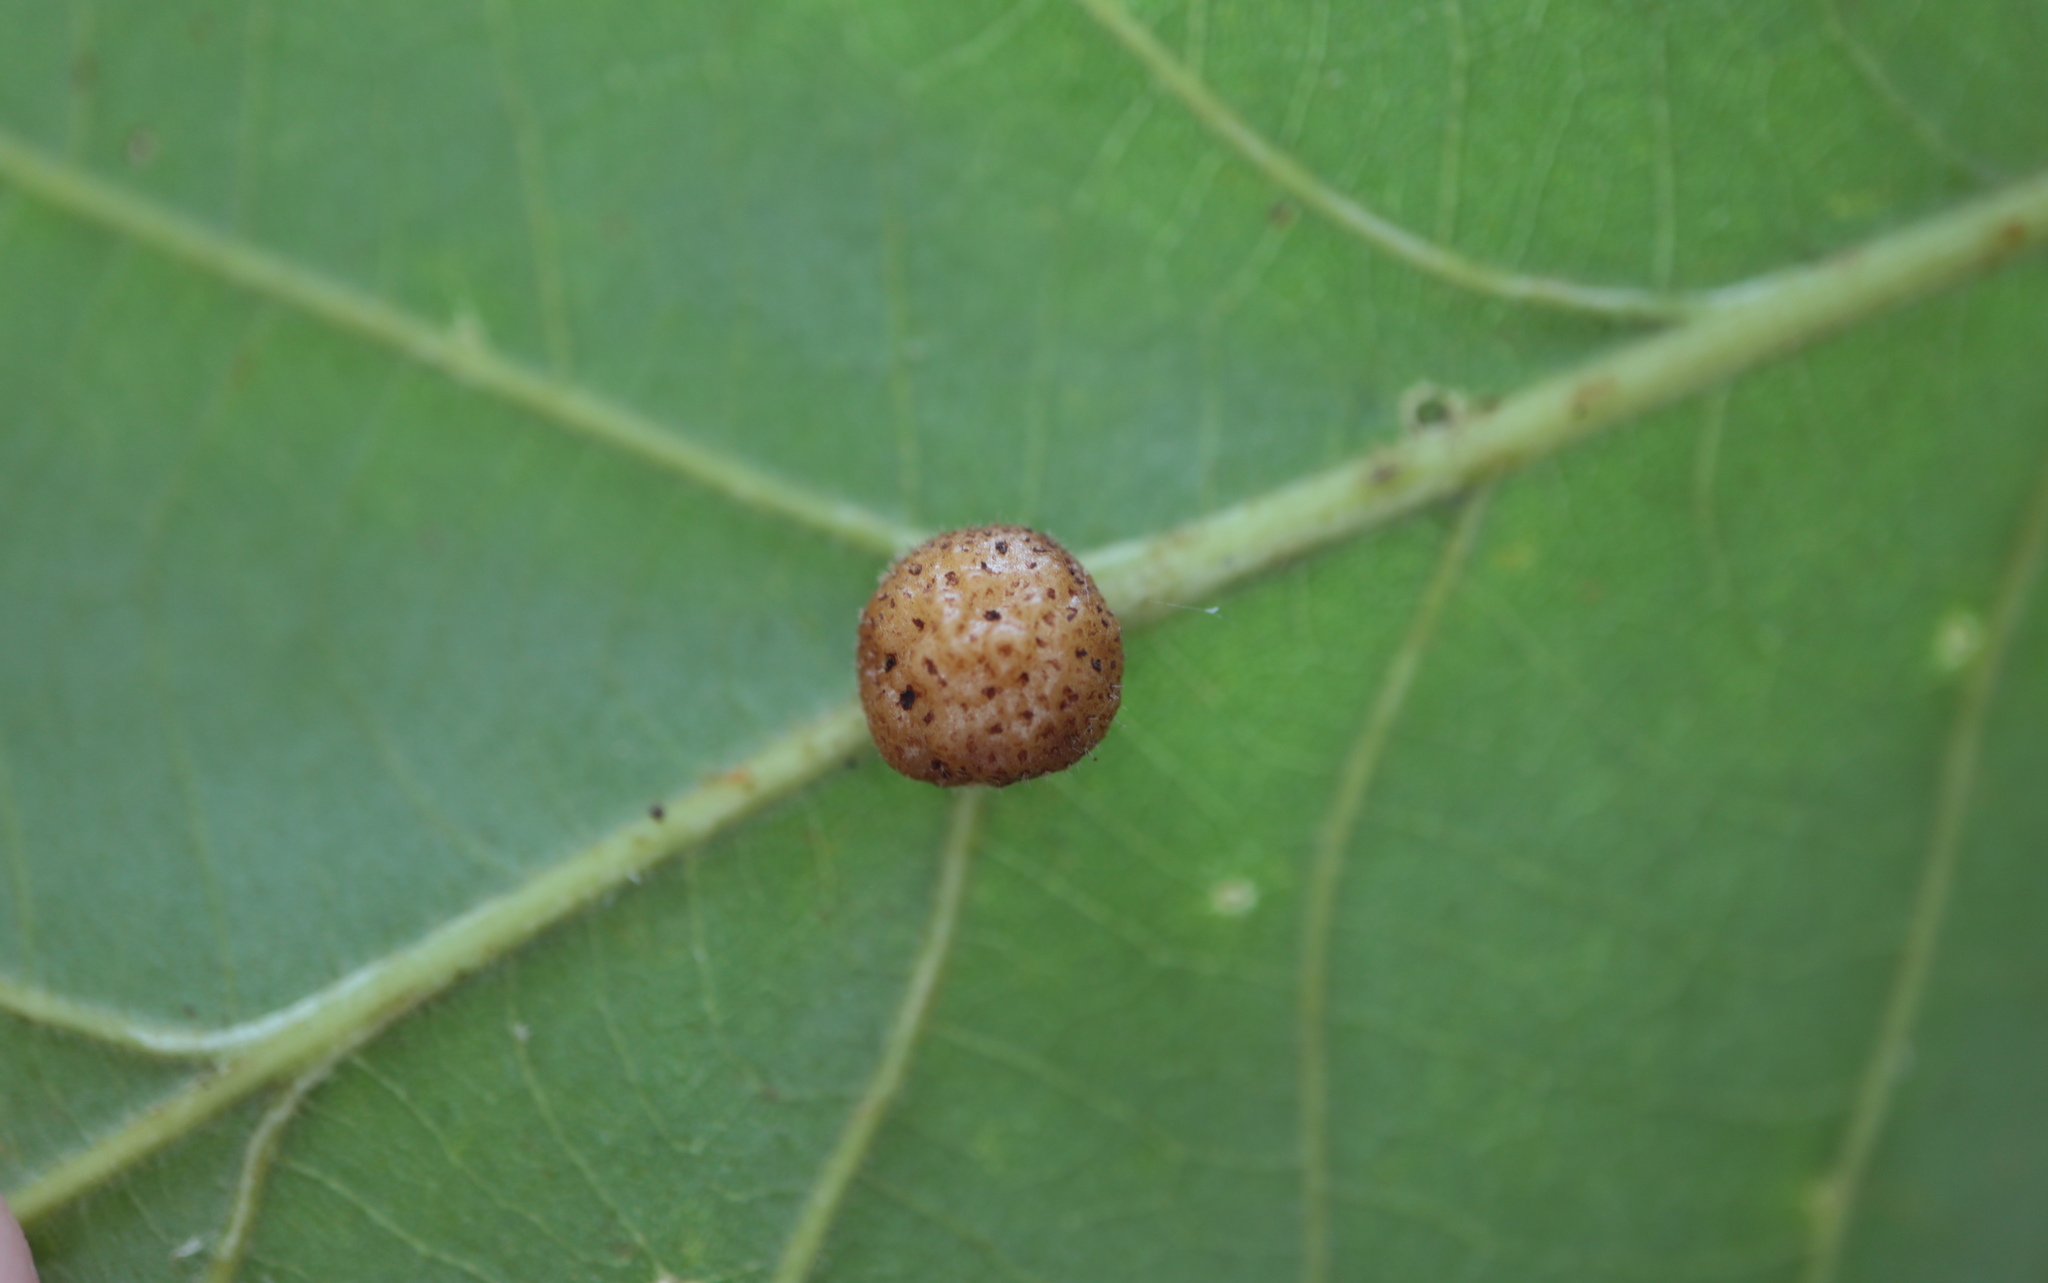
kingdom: Animalia
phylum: Arthropoda
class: Insecta
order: Hymenoptera
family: Cynipidae
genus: Andricus
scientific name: Andricus
